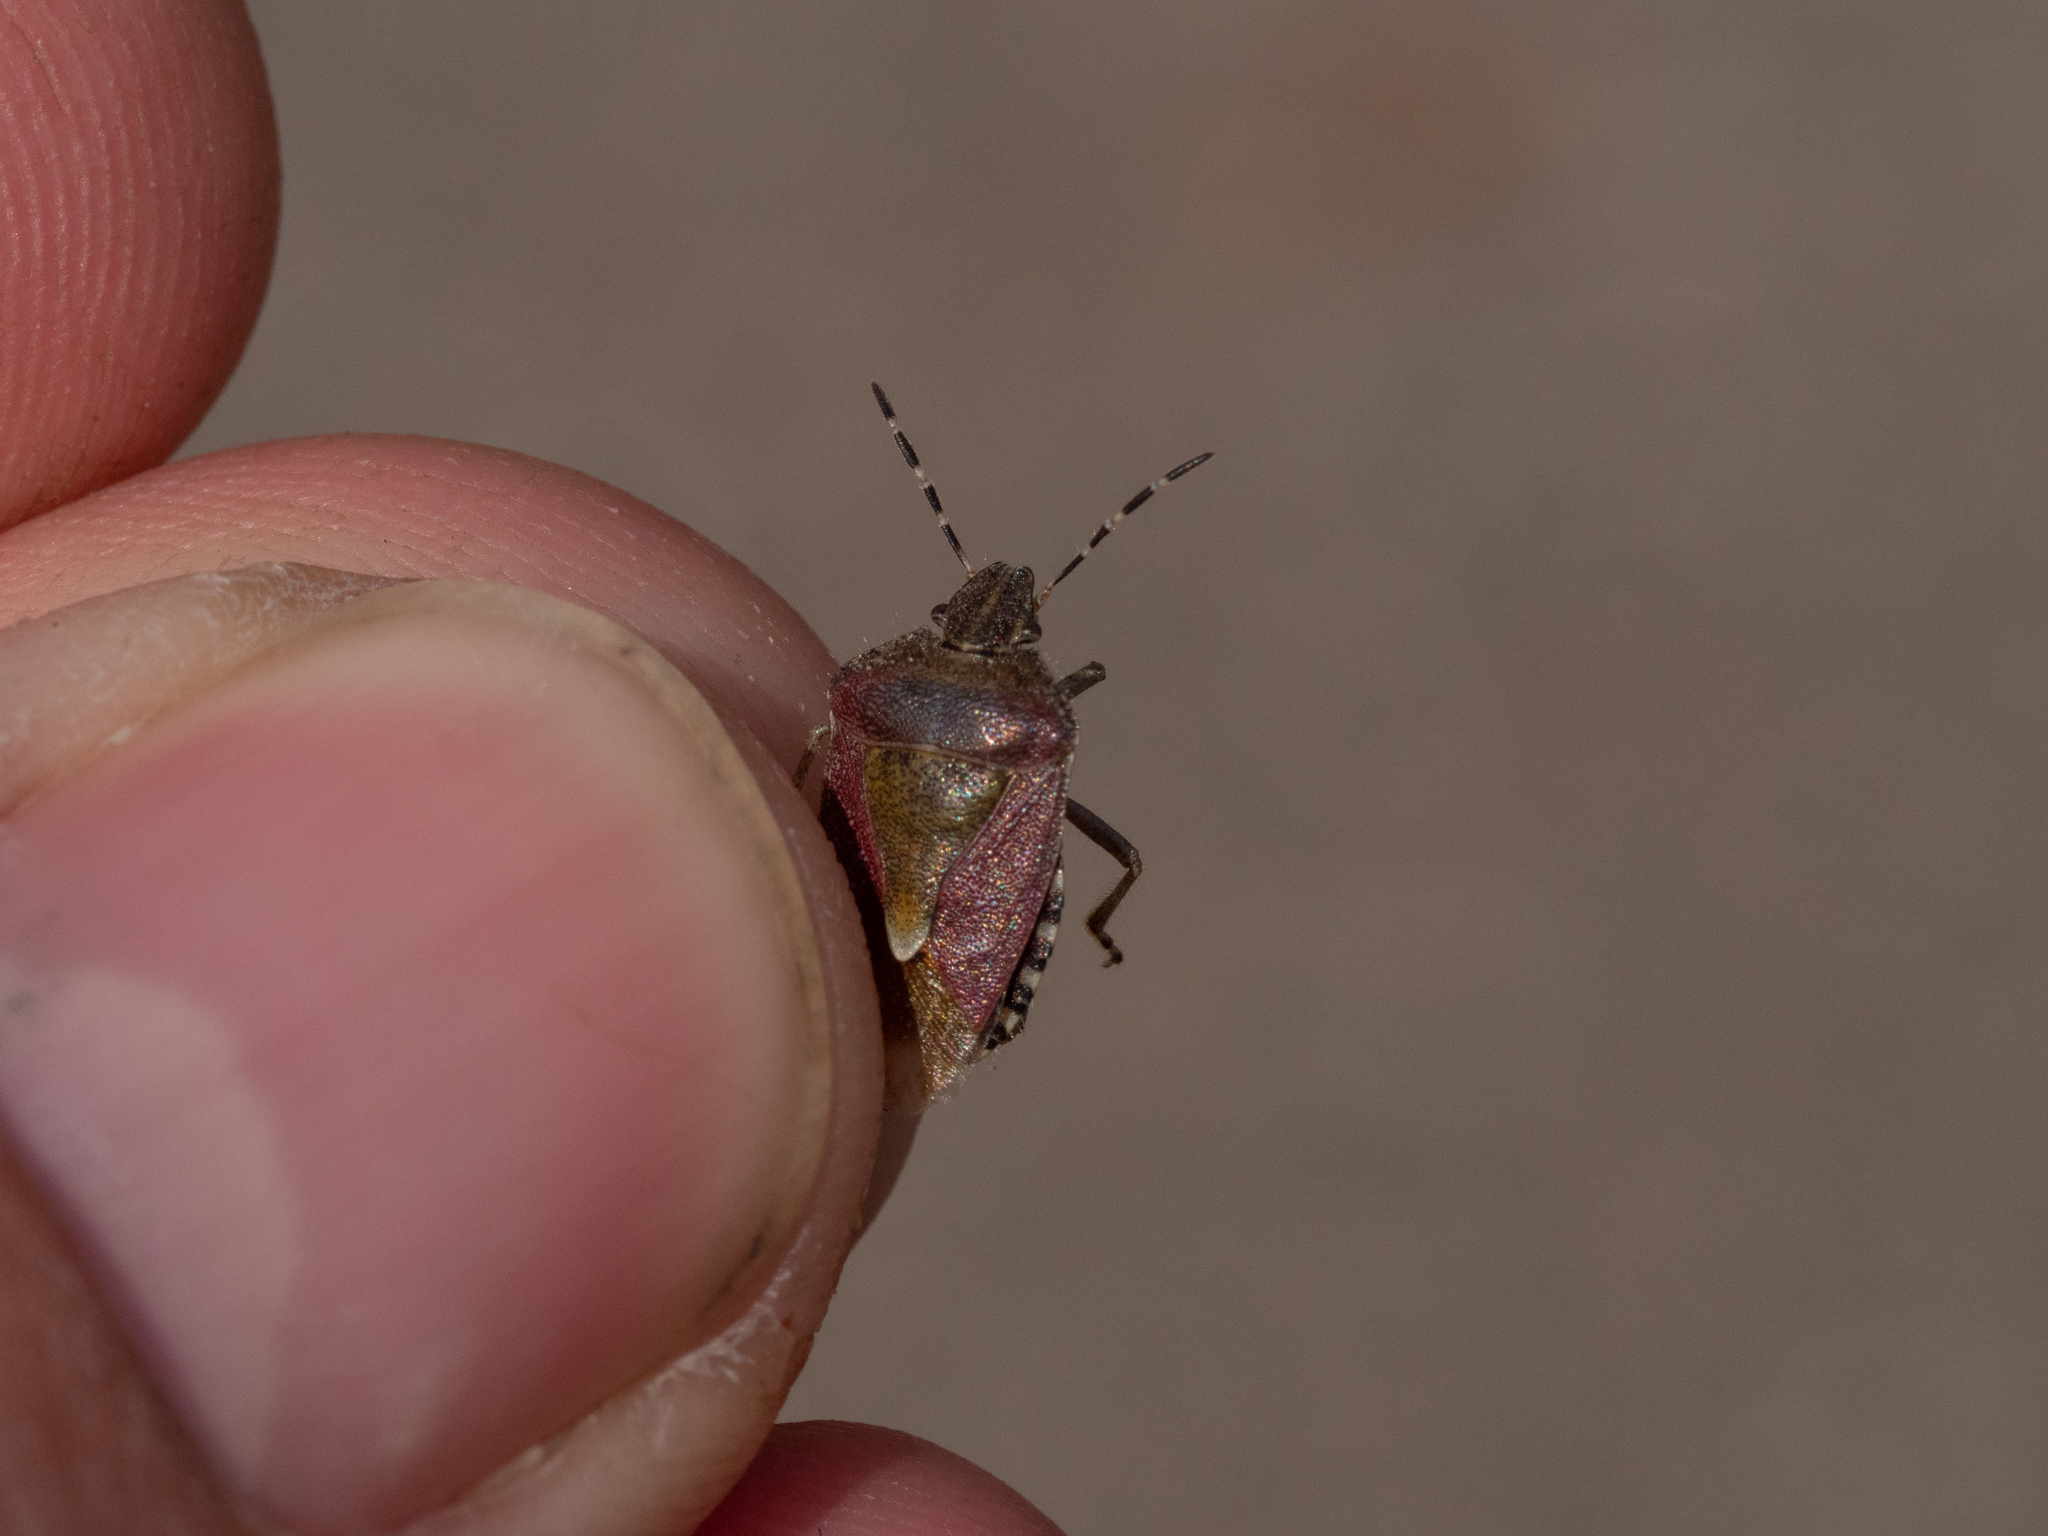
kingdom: Animalia
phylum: Arthropoda
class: Insecta
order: Hemiptera
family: Pentatomidae
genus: Dolycoris
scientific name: Dolycoris baccarum
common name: Sloe bug
